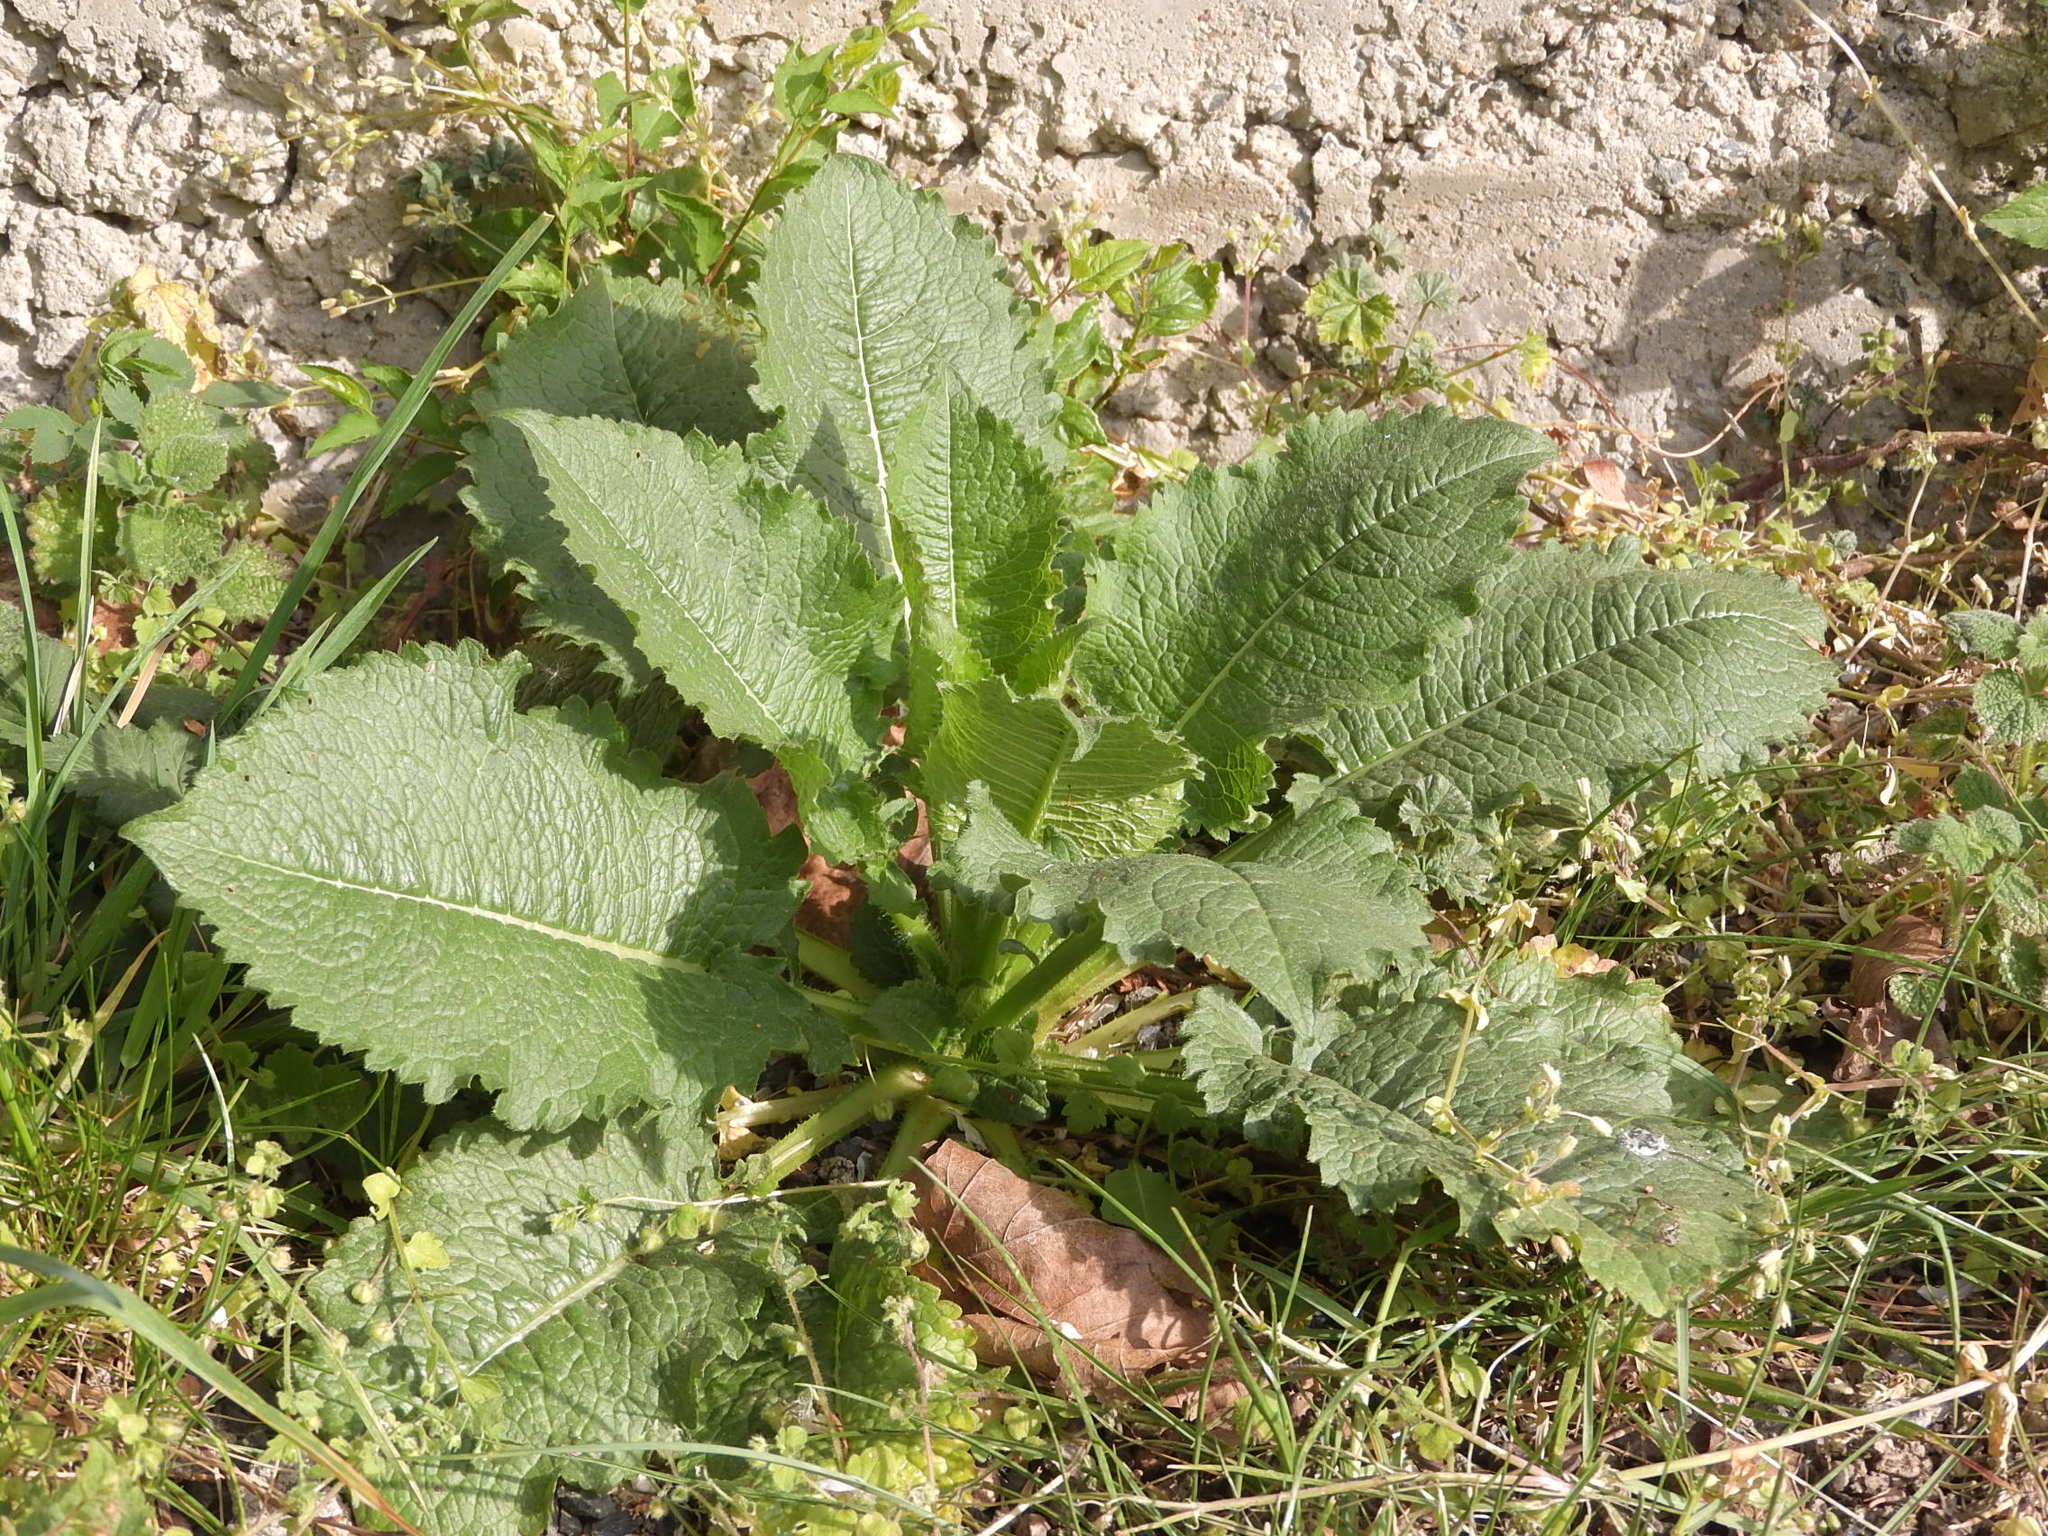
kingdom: Plantae
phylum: Tracheophyta
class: Magnoliopsida
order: Dipsacales
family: Caprifoliaceae
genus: Dipsacus
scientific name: Dipsacus strigosus
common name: Yellow-flowered teasel
